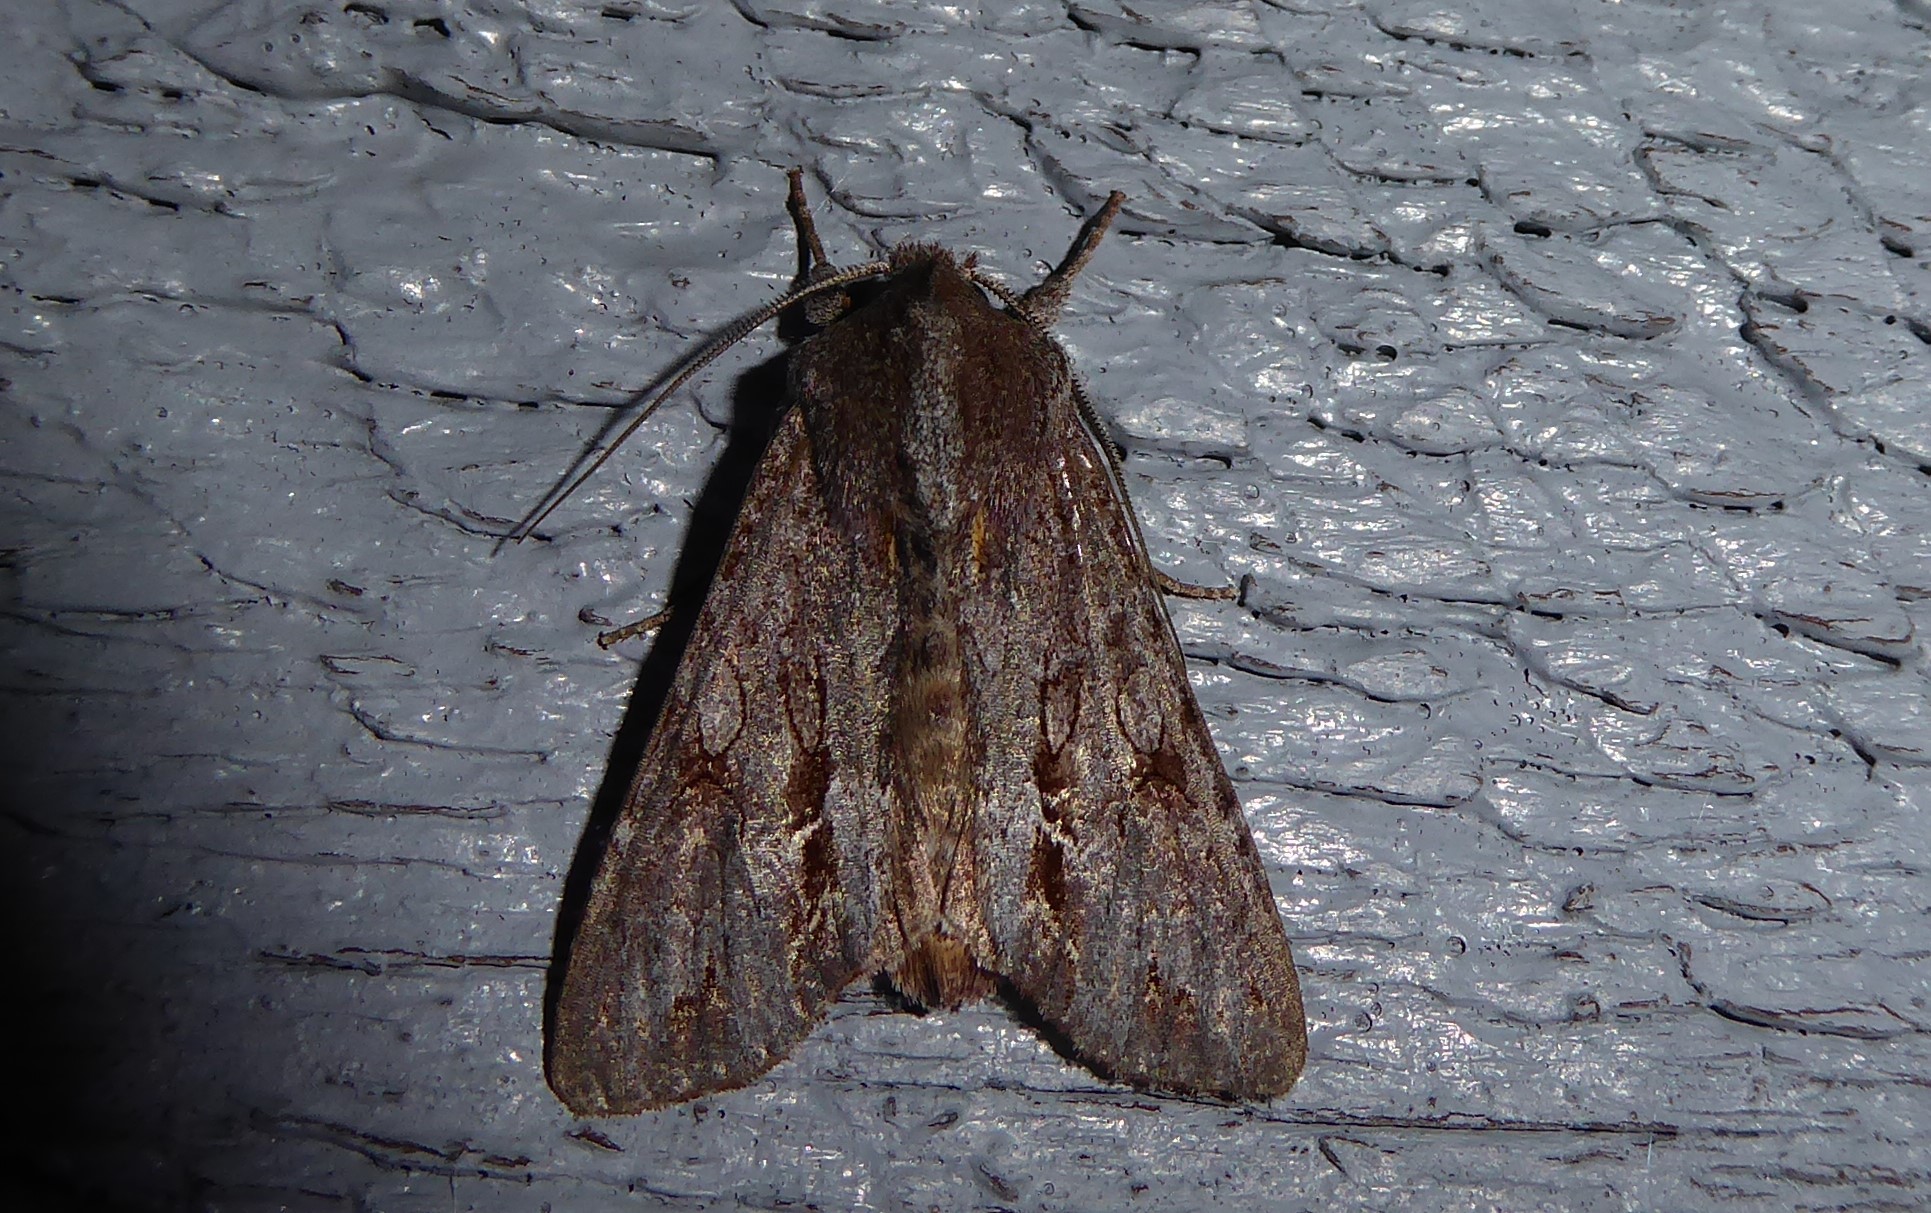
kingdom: Animalia
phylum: Arthropoda
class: Insecta
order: Lepidoptera
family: Noctuidae
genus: Ichneutica
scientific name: Ichneutica
